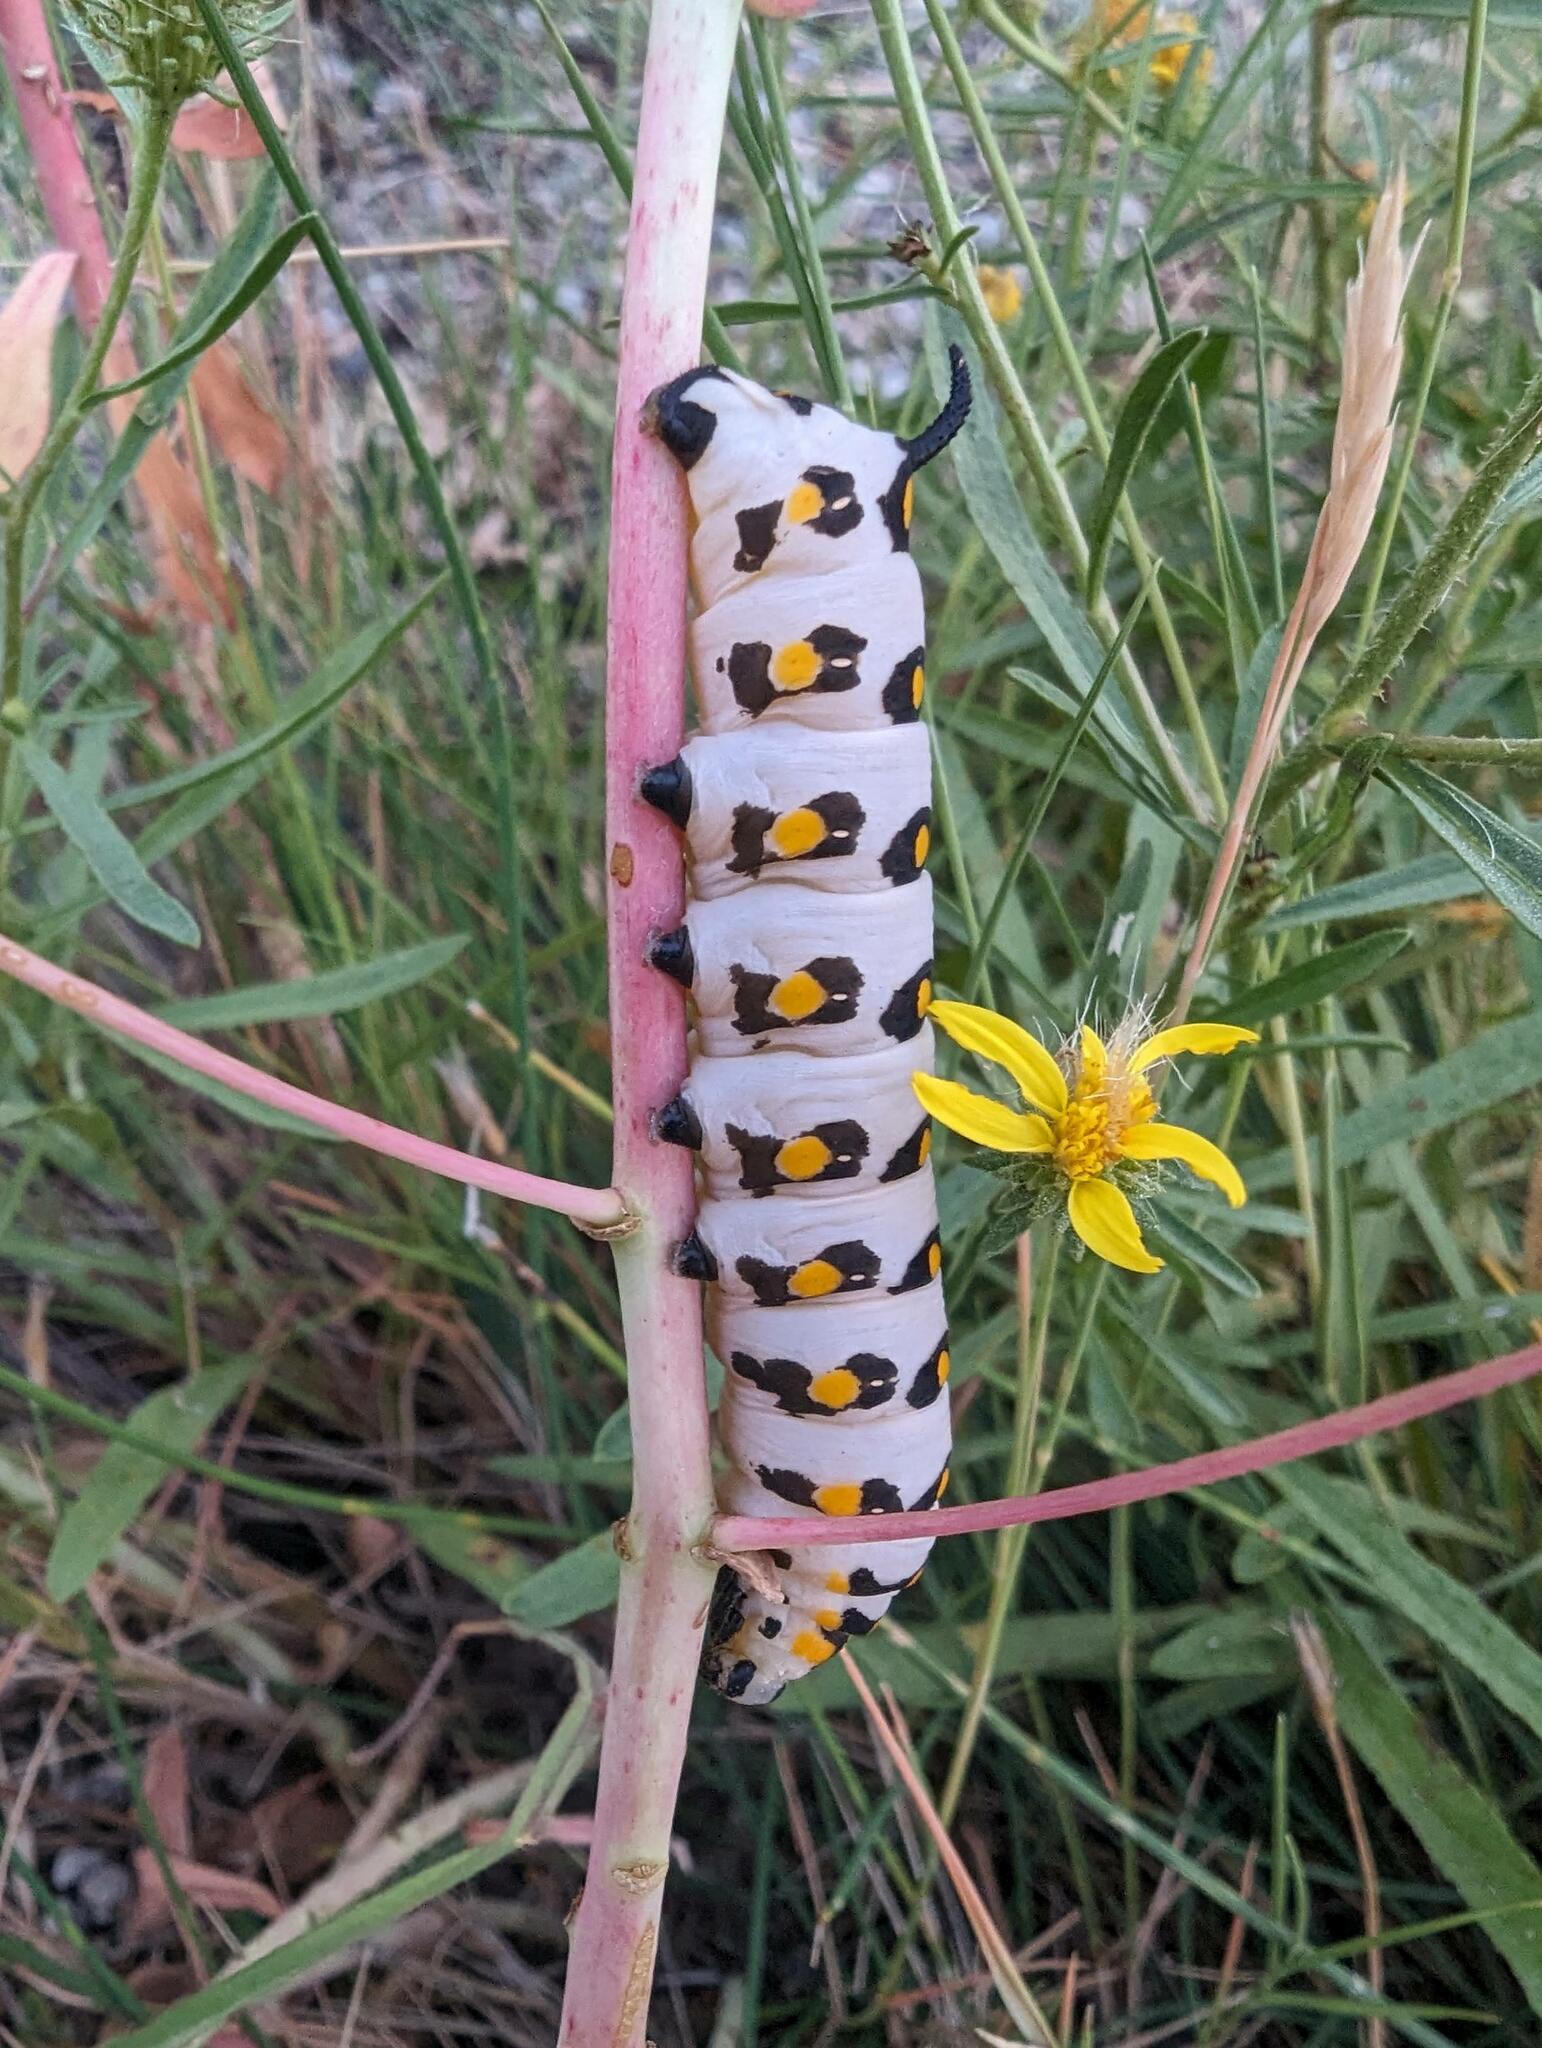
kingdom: Animalia
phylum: Arthropoda
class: Insecta
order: Lepidoptera
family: Sphingidae
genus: Hyles
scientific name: Hyles nicaea
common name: Mediterranean hawk-moth
